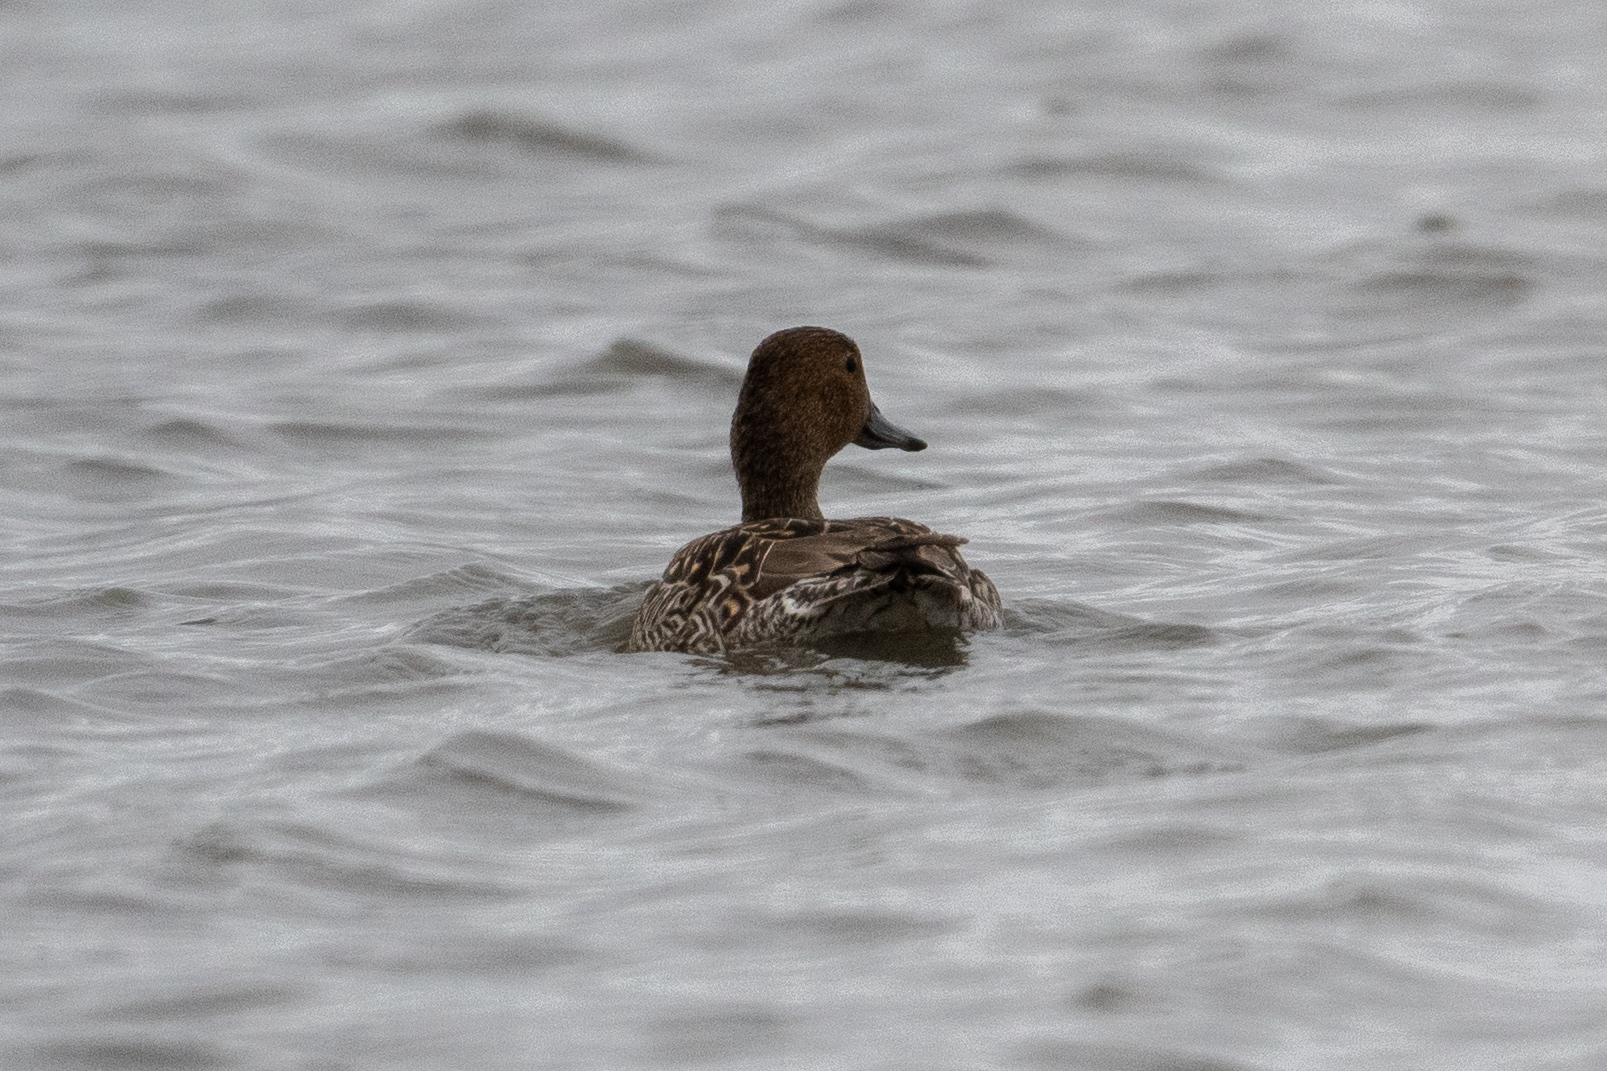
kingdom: Animalia
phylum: Chordata
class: Aves
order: Anseriformes
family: Anatidae
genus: Anas
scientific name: Anas acuta
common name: Northern pintail
